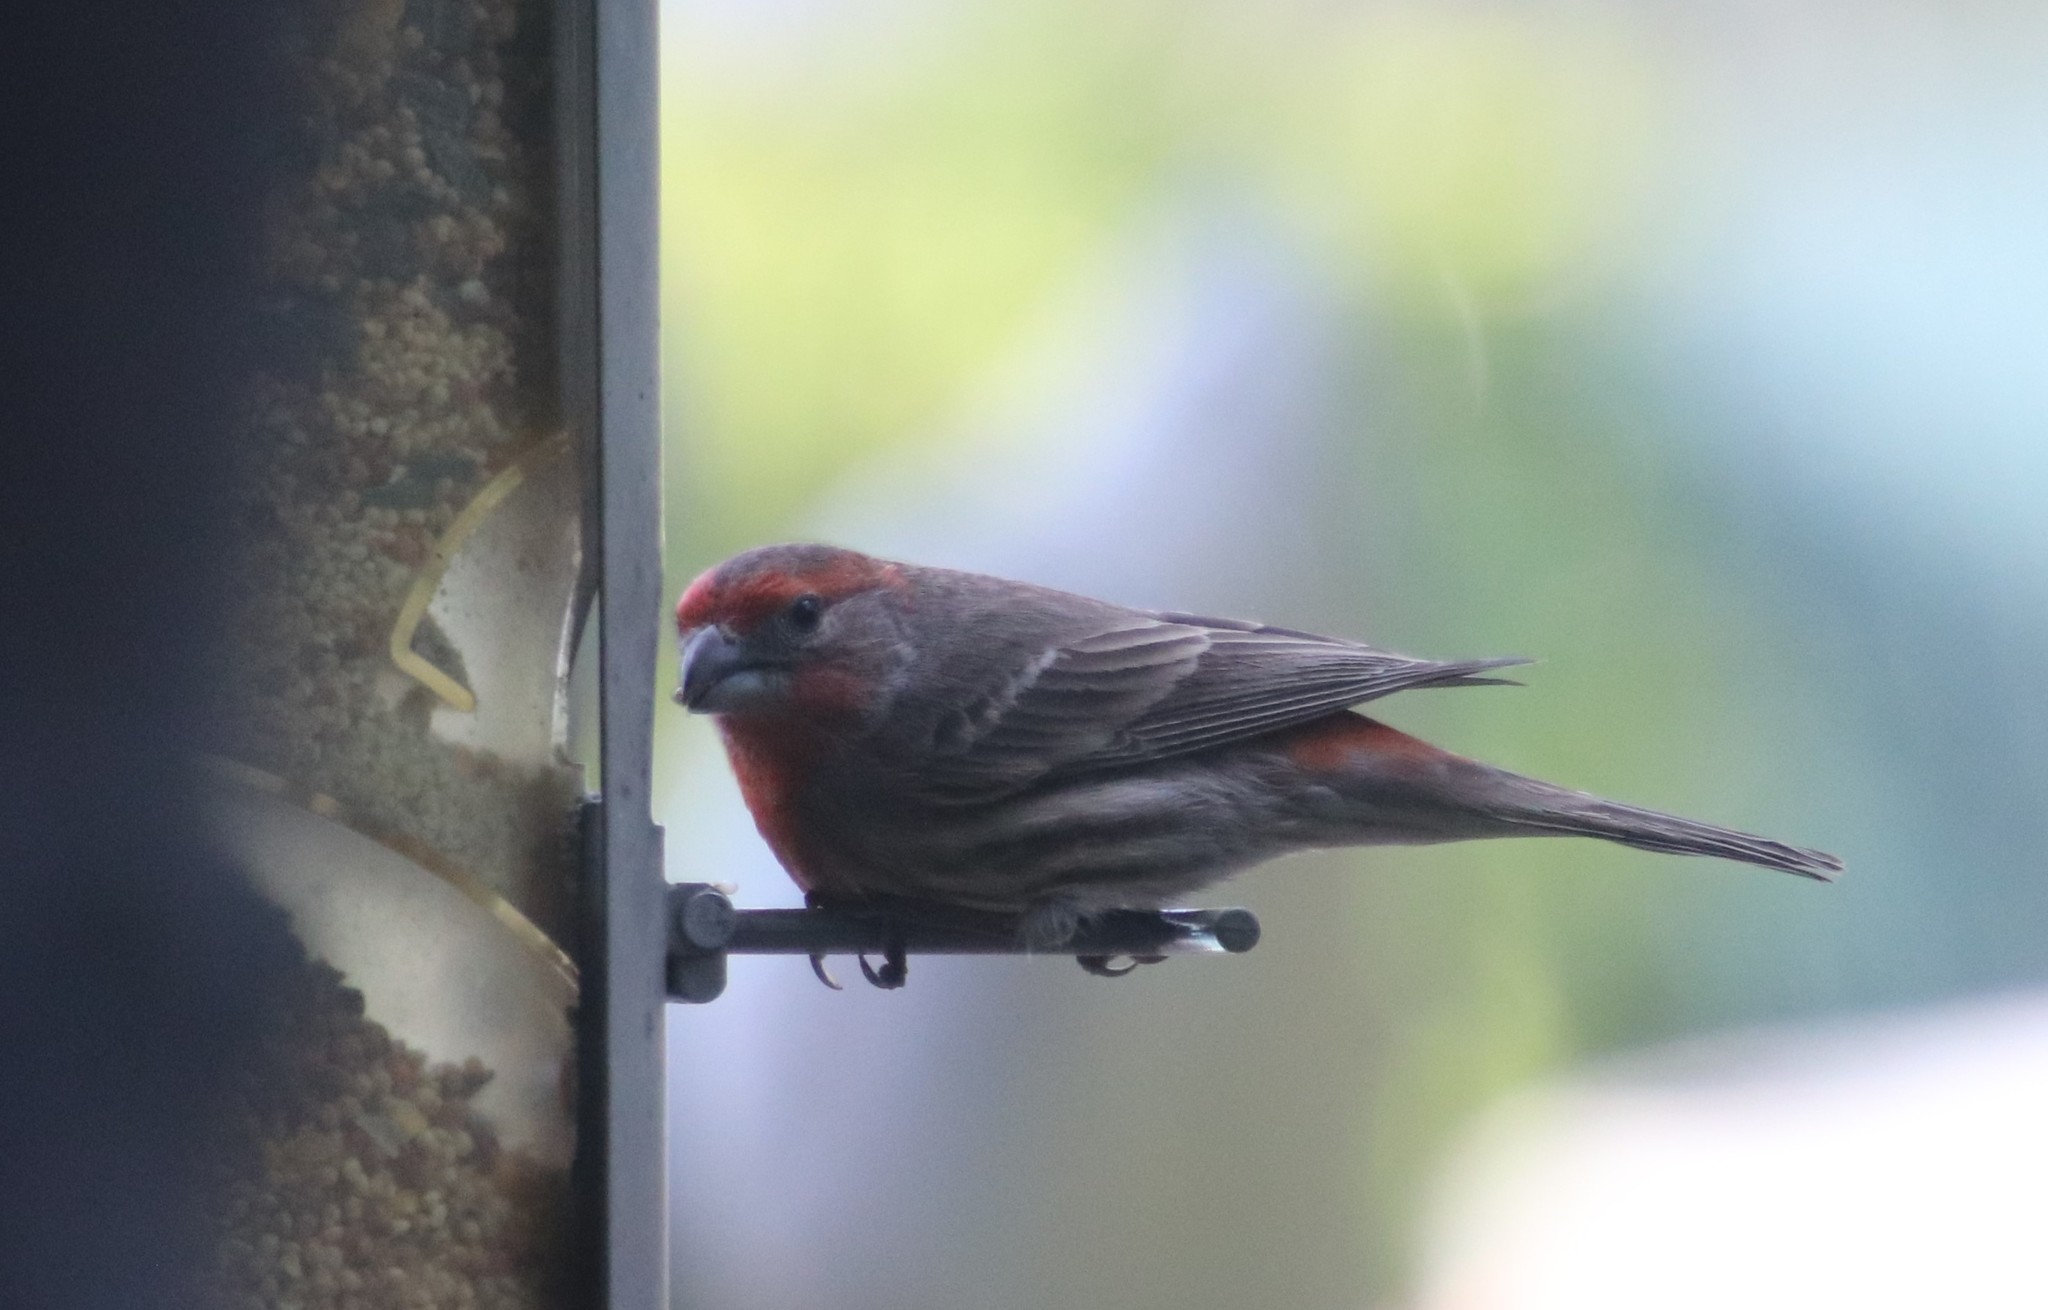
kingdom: Animalia
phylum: Chordata
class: Aves
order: Passeriformes
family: Fringillidae
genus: Haemorhous
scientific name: Haemorhous mexicanus
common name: House finch
